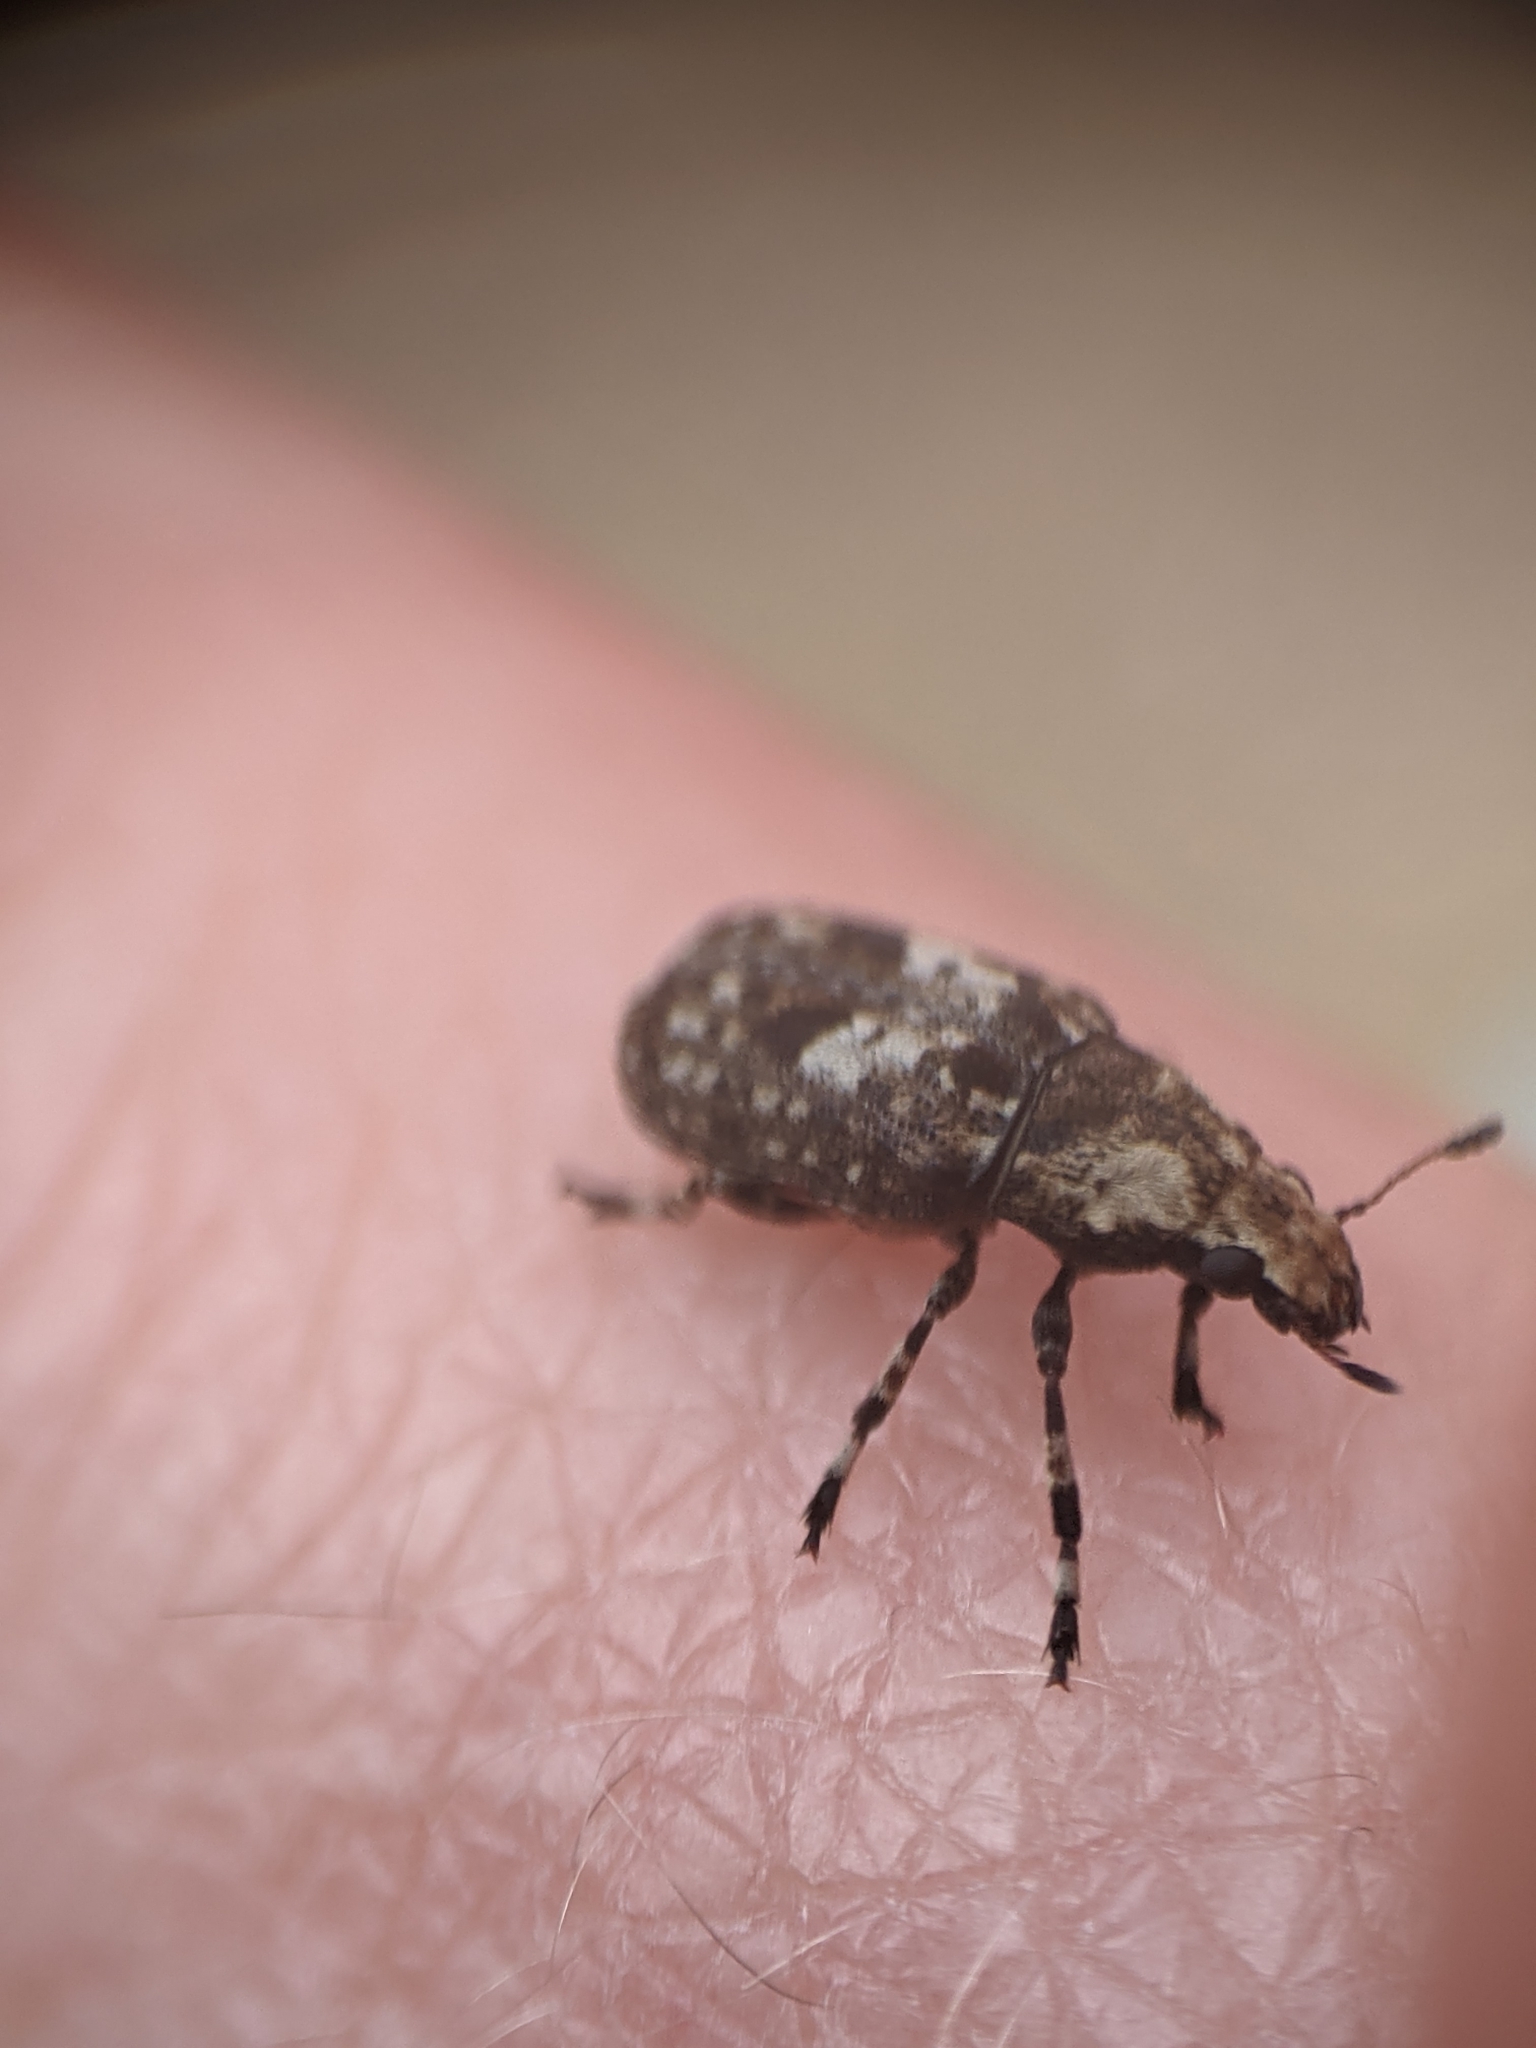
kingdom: Animalia
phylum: Arthropoda
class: Insecta
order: Coleoptera
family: Anthribidae
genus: Euparius
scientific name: Euparius marmoreus
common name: Marbled fungus weevil
